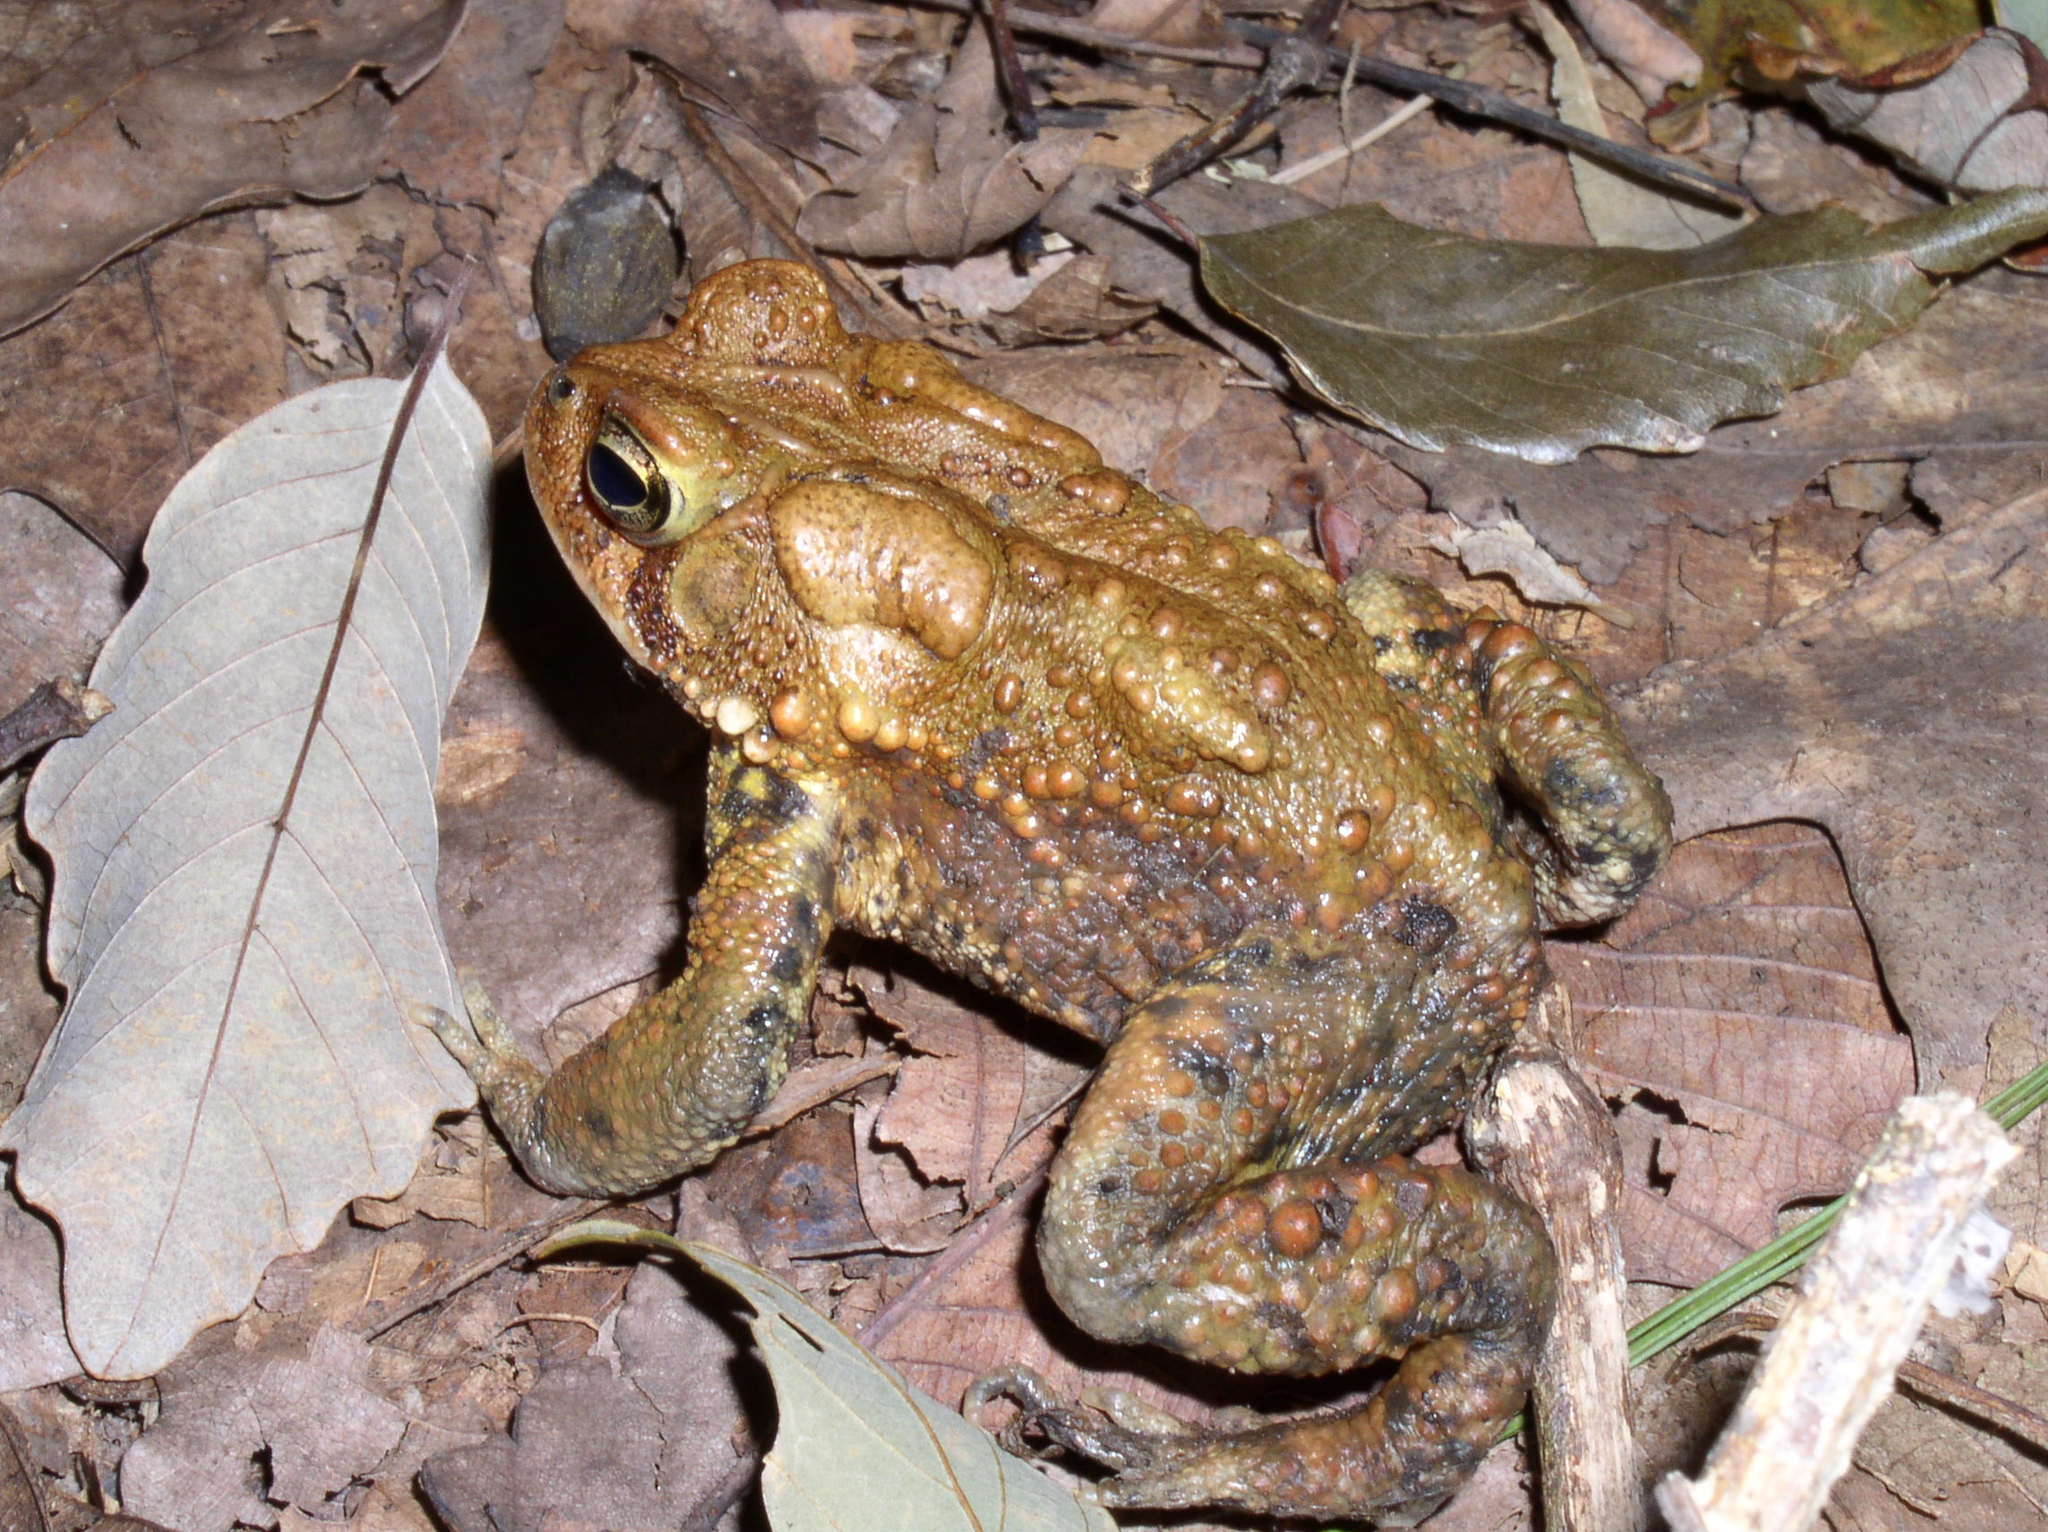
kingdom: Animalia
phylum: Chordata
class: Amphibia
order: Anura
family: Bufonidae
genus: Anaxyrus
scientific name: Anaxyrus americanus
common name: American toad
